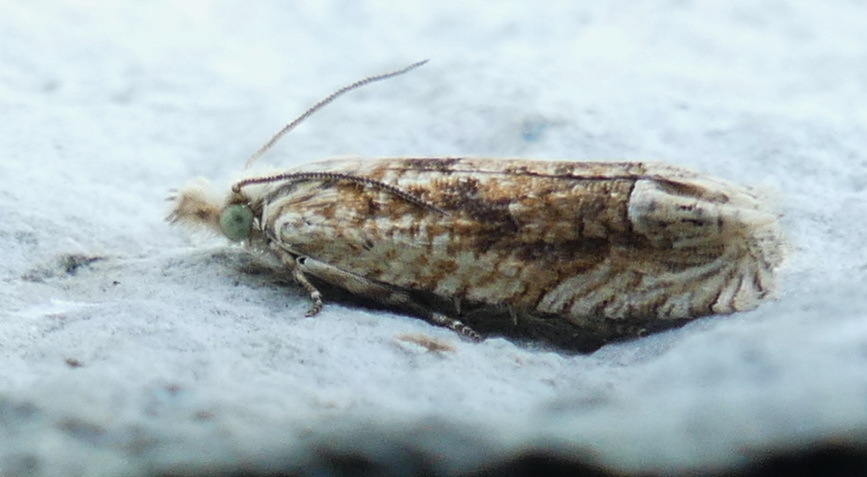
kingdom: Animalia
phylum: Arthropoda
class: Insecta
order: Lepidoptera
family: Tortricidae
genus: Eucosma
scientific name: Eucosma ochrocephala
